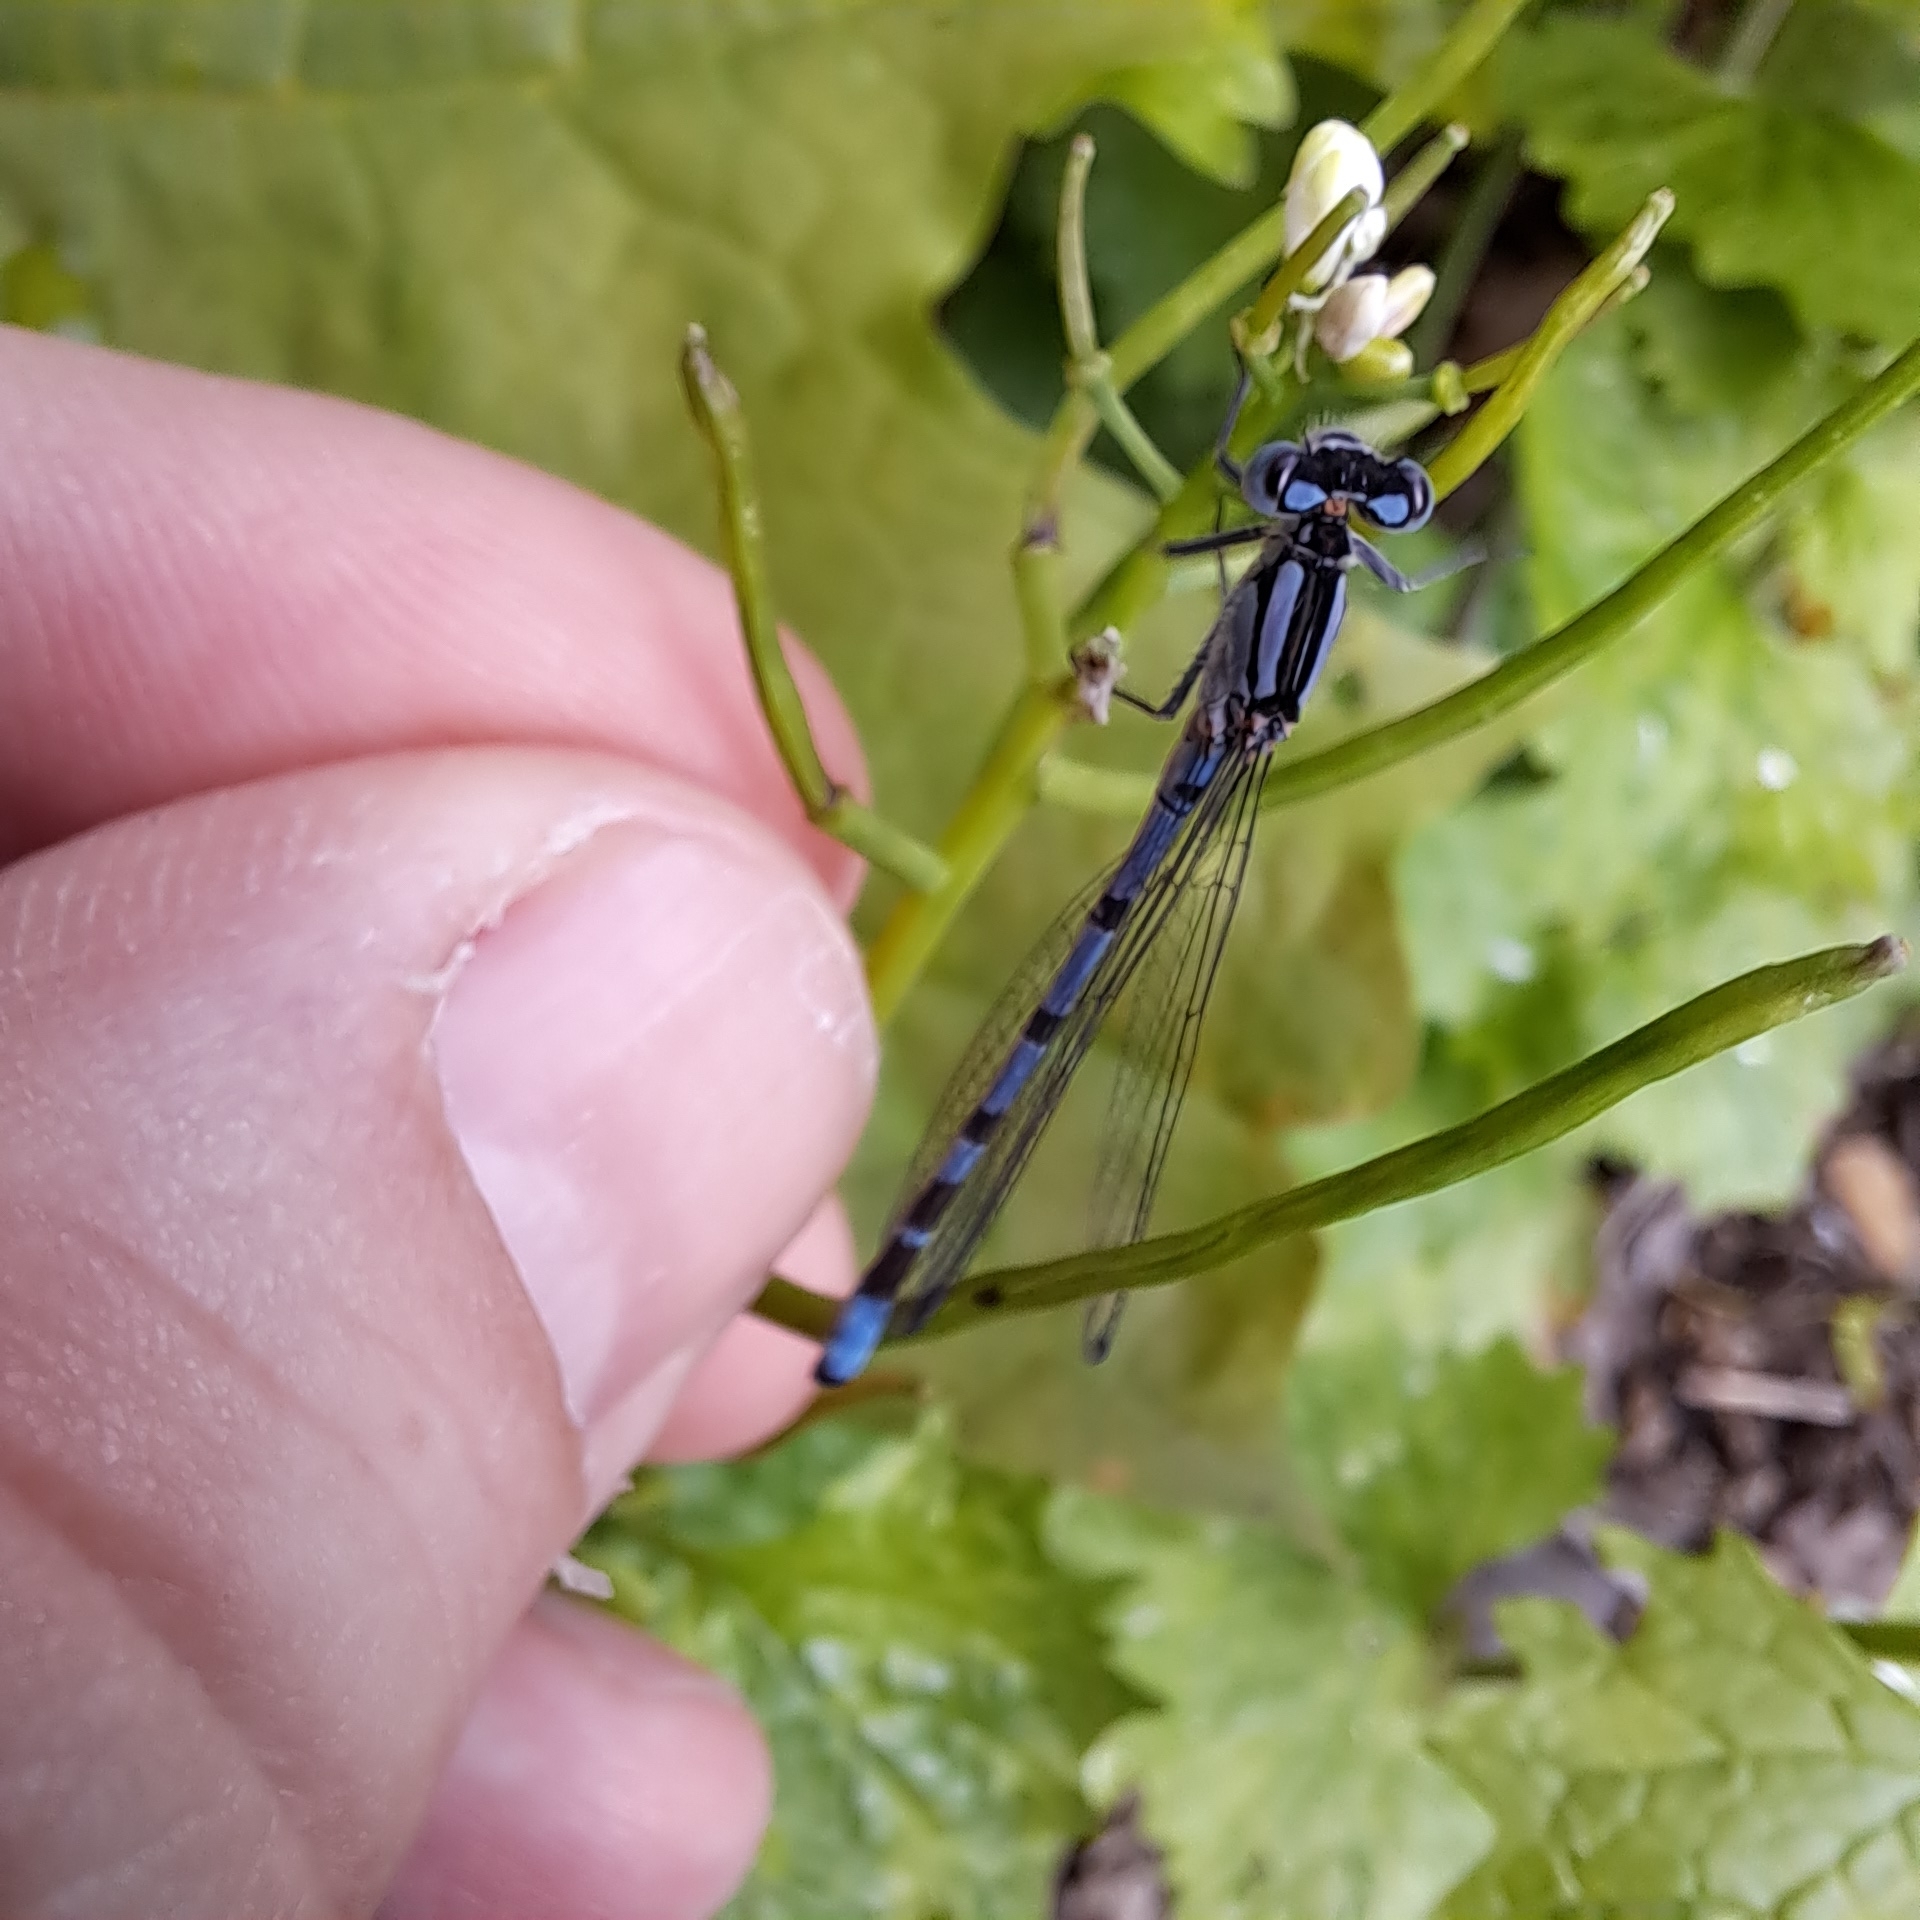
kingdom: Animalia
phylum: Arthropoda
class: Insecta
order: Odonata
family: Coenagrionidae
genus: Enallagma
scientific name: Enallagma cyathigerum
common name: Common blue damselfly
